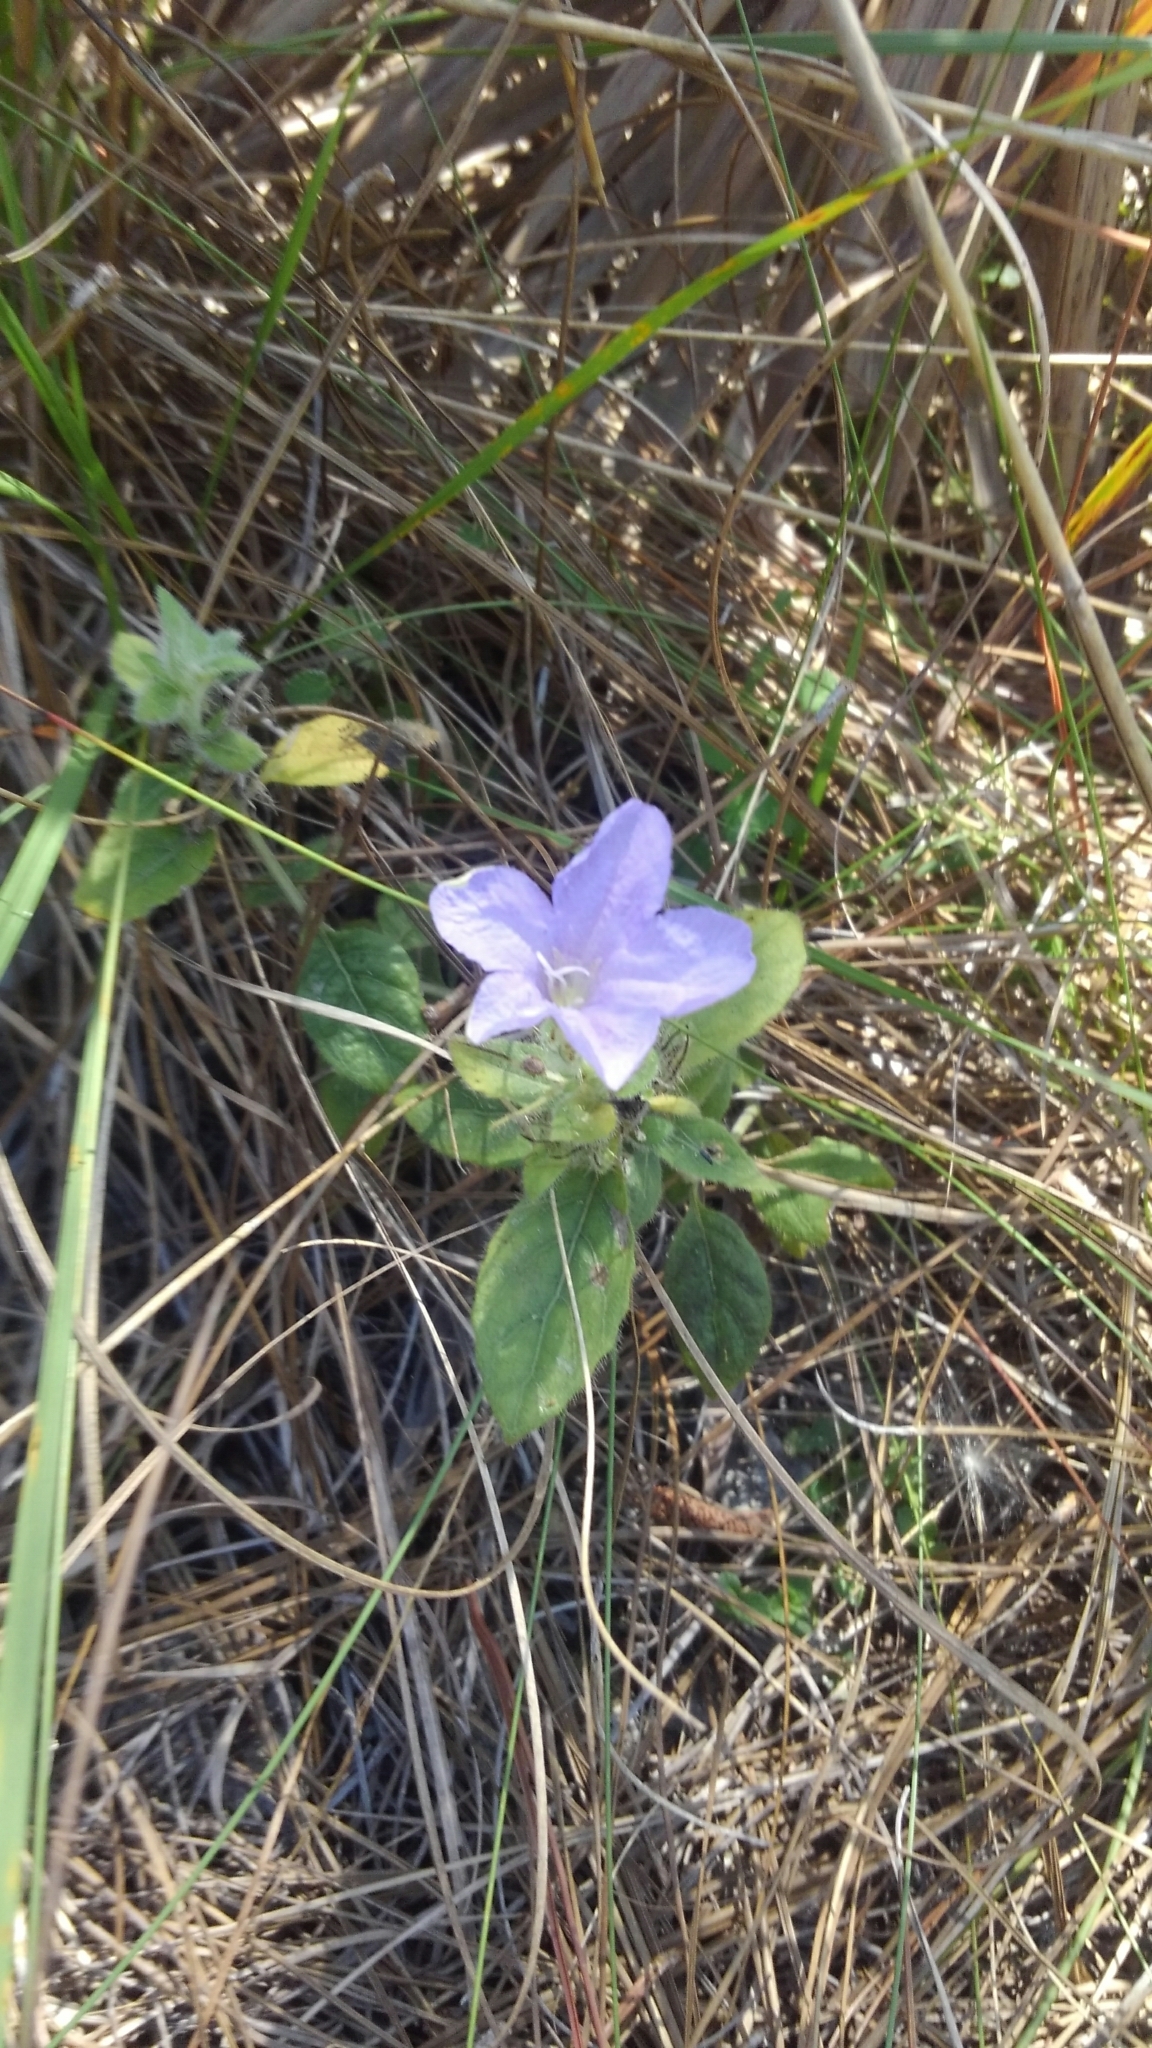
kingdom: Plantae
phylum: Tracheophyta
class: Magnoliopsida
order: Lamiales
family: Acanthaceae
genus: Ruellia
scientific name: Ruellia caroliniensis
